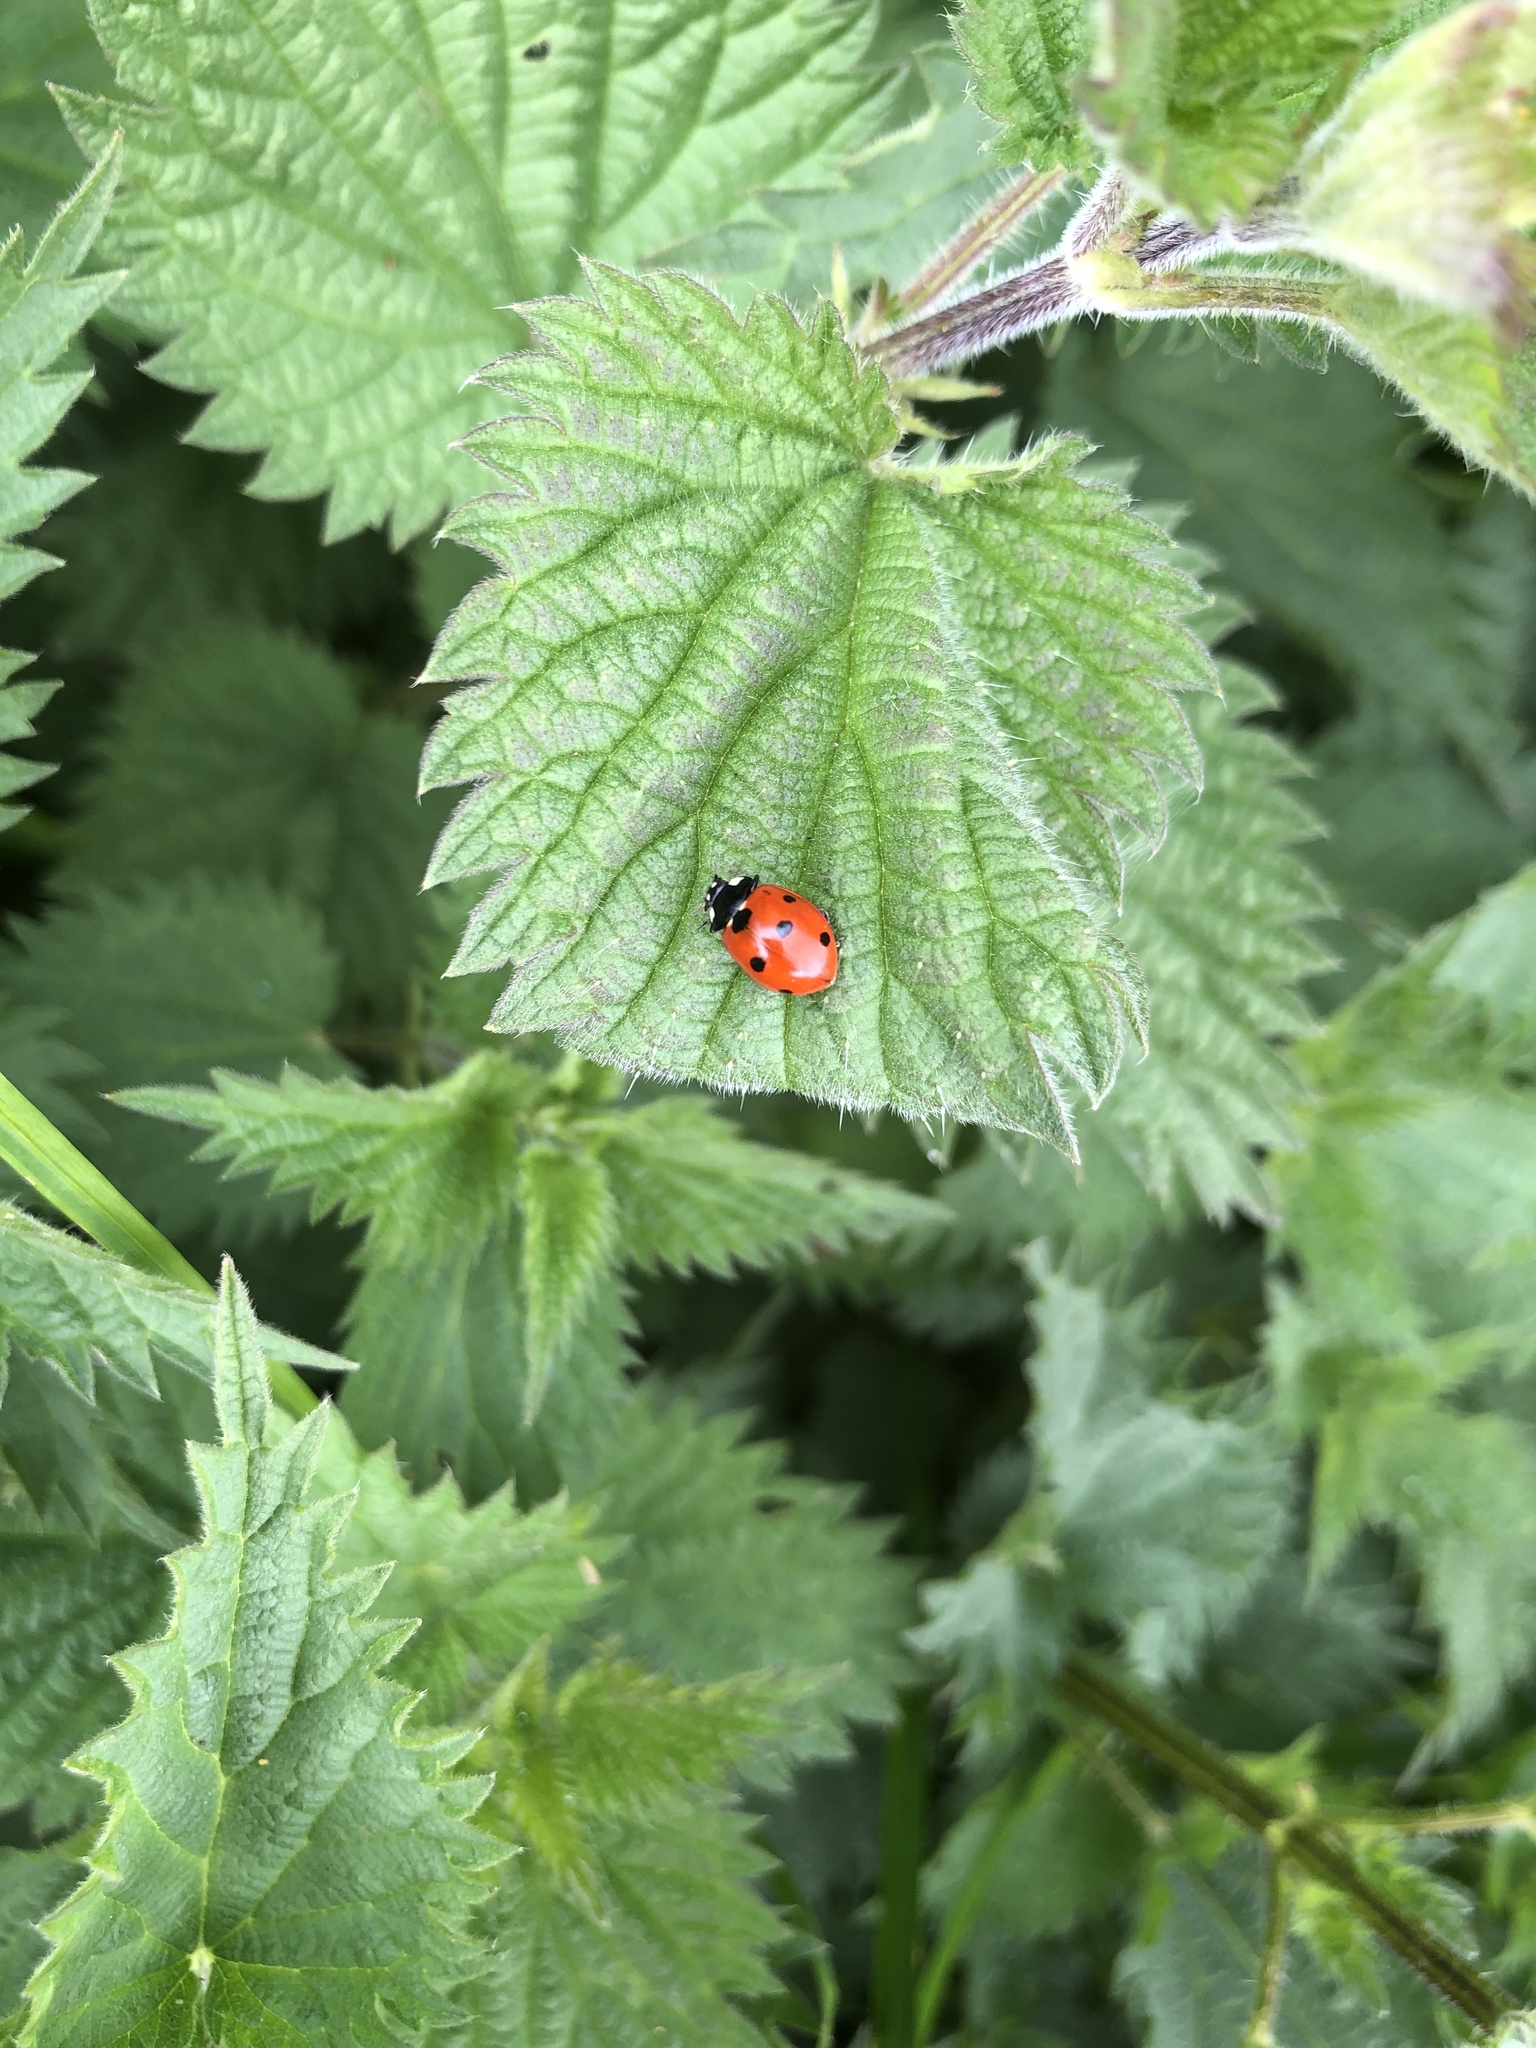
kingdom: Animalia
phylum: Arthropoda
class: Insecta
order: Coleoptera
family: Coccinellidae
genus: Coccinella
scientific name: Coccinella septempunctata
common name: Sevenspotted lady beetle
